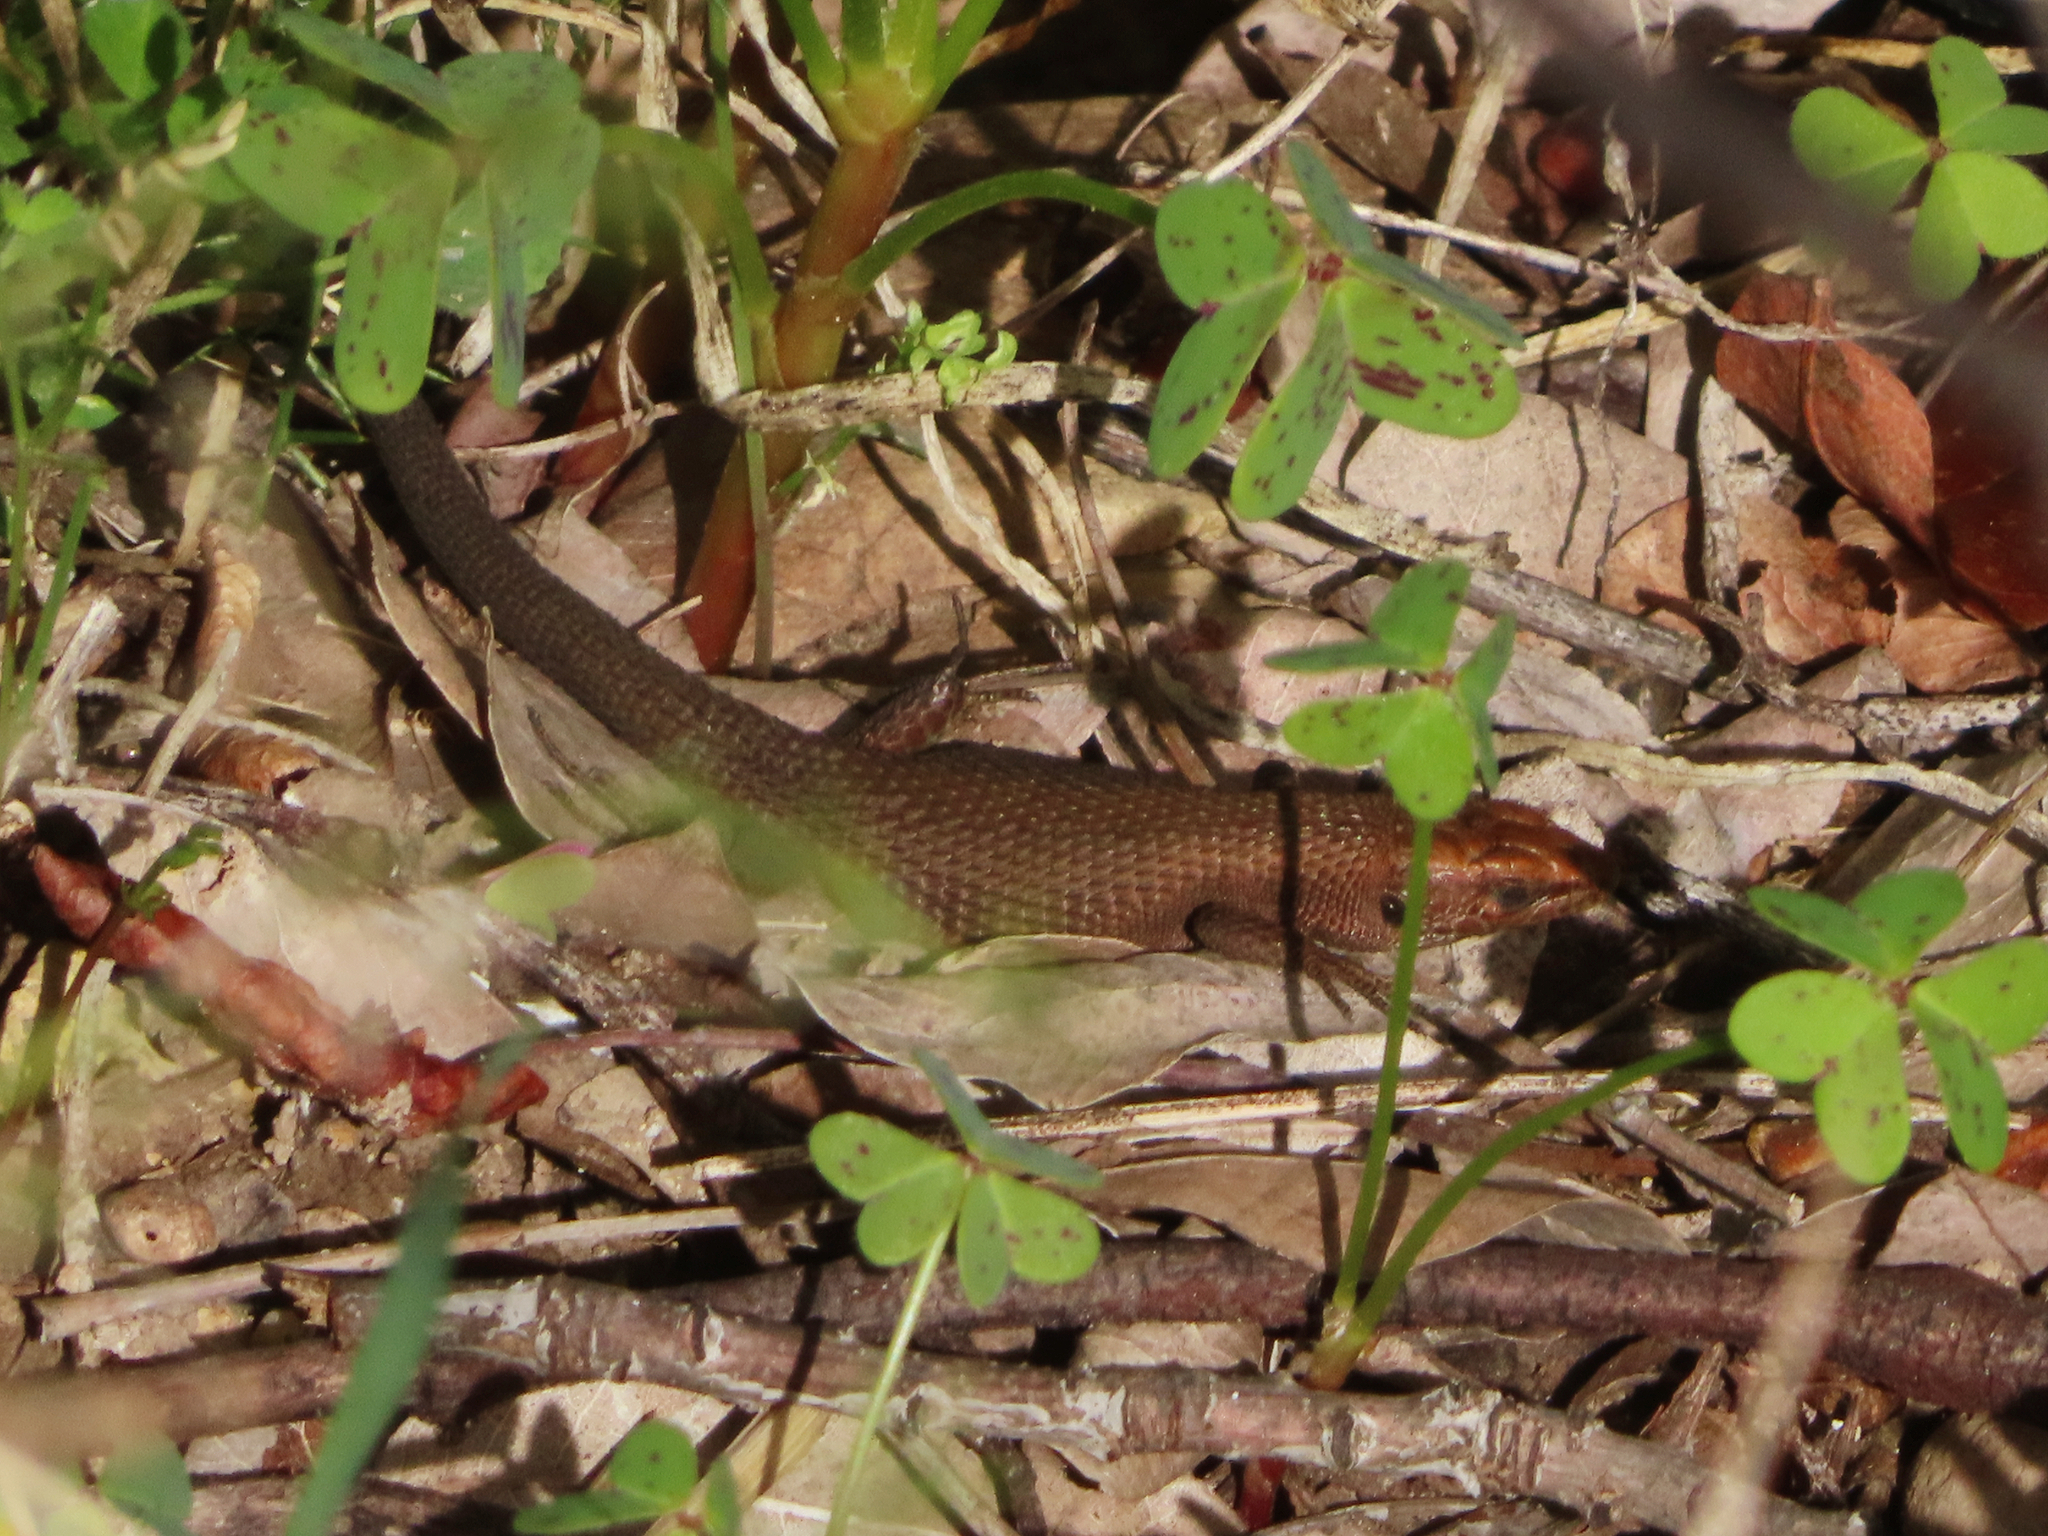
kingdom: Animalia
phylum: Chordata
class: Squamata
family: Lacertidae
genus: Algyroides
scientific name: Algyroides moreoticus
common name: Greek algyroides
